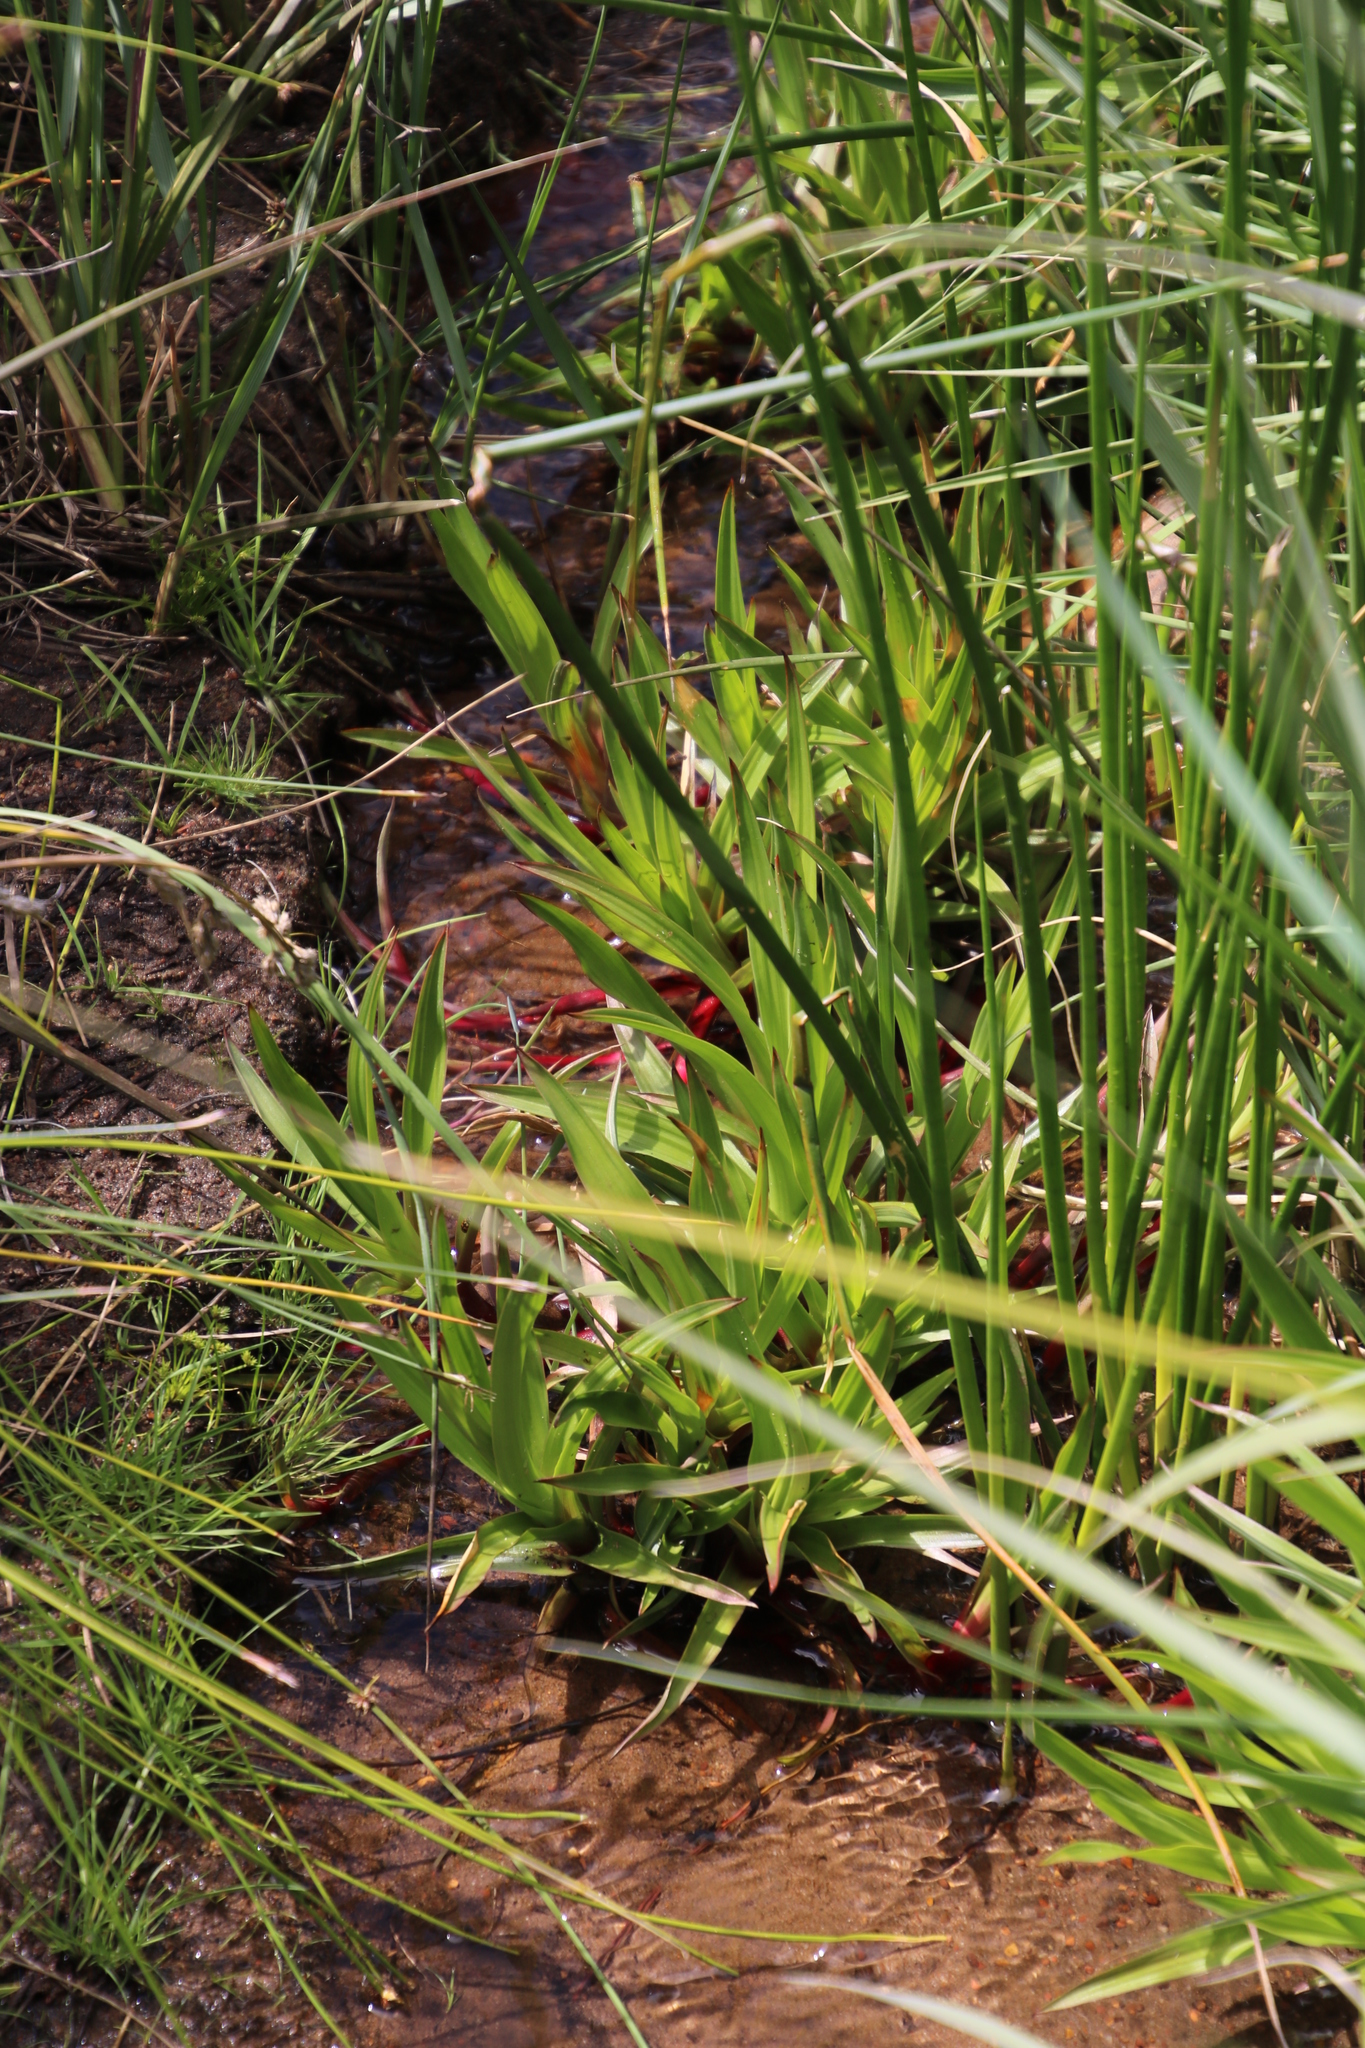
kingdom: Plantae
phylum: Tracheophyta
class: Liliopsida
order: Poales
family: Juncaceae
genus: Juncus
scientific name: Juncus lomatophyllus
